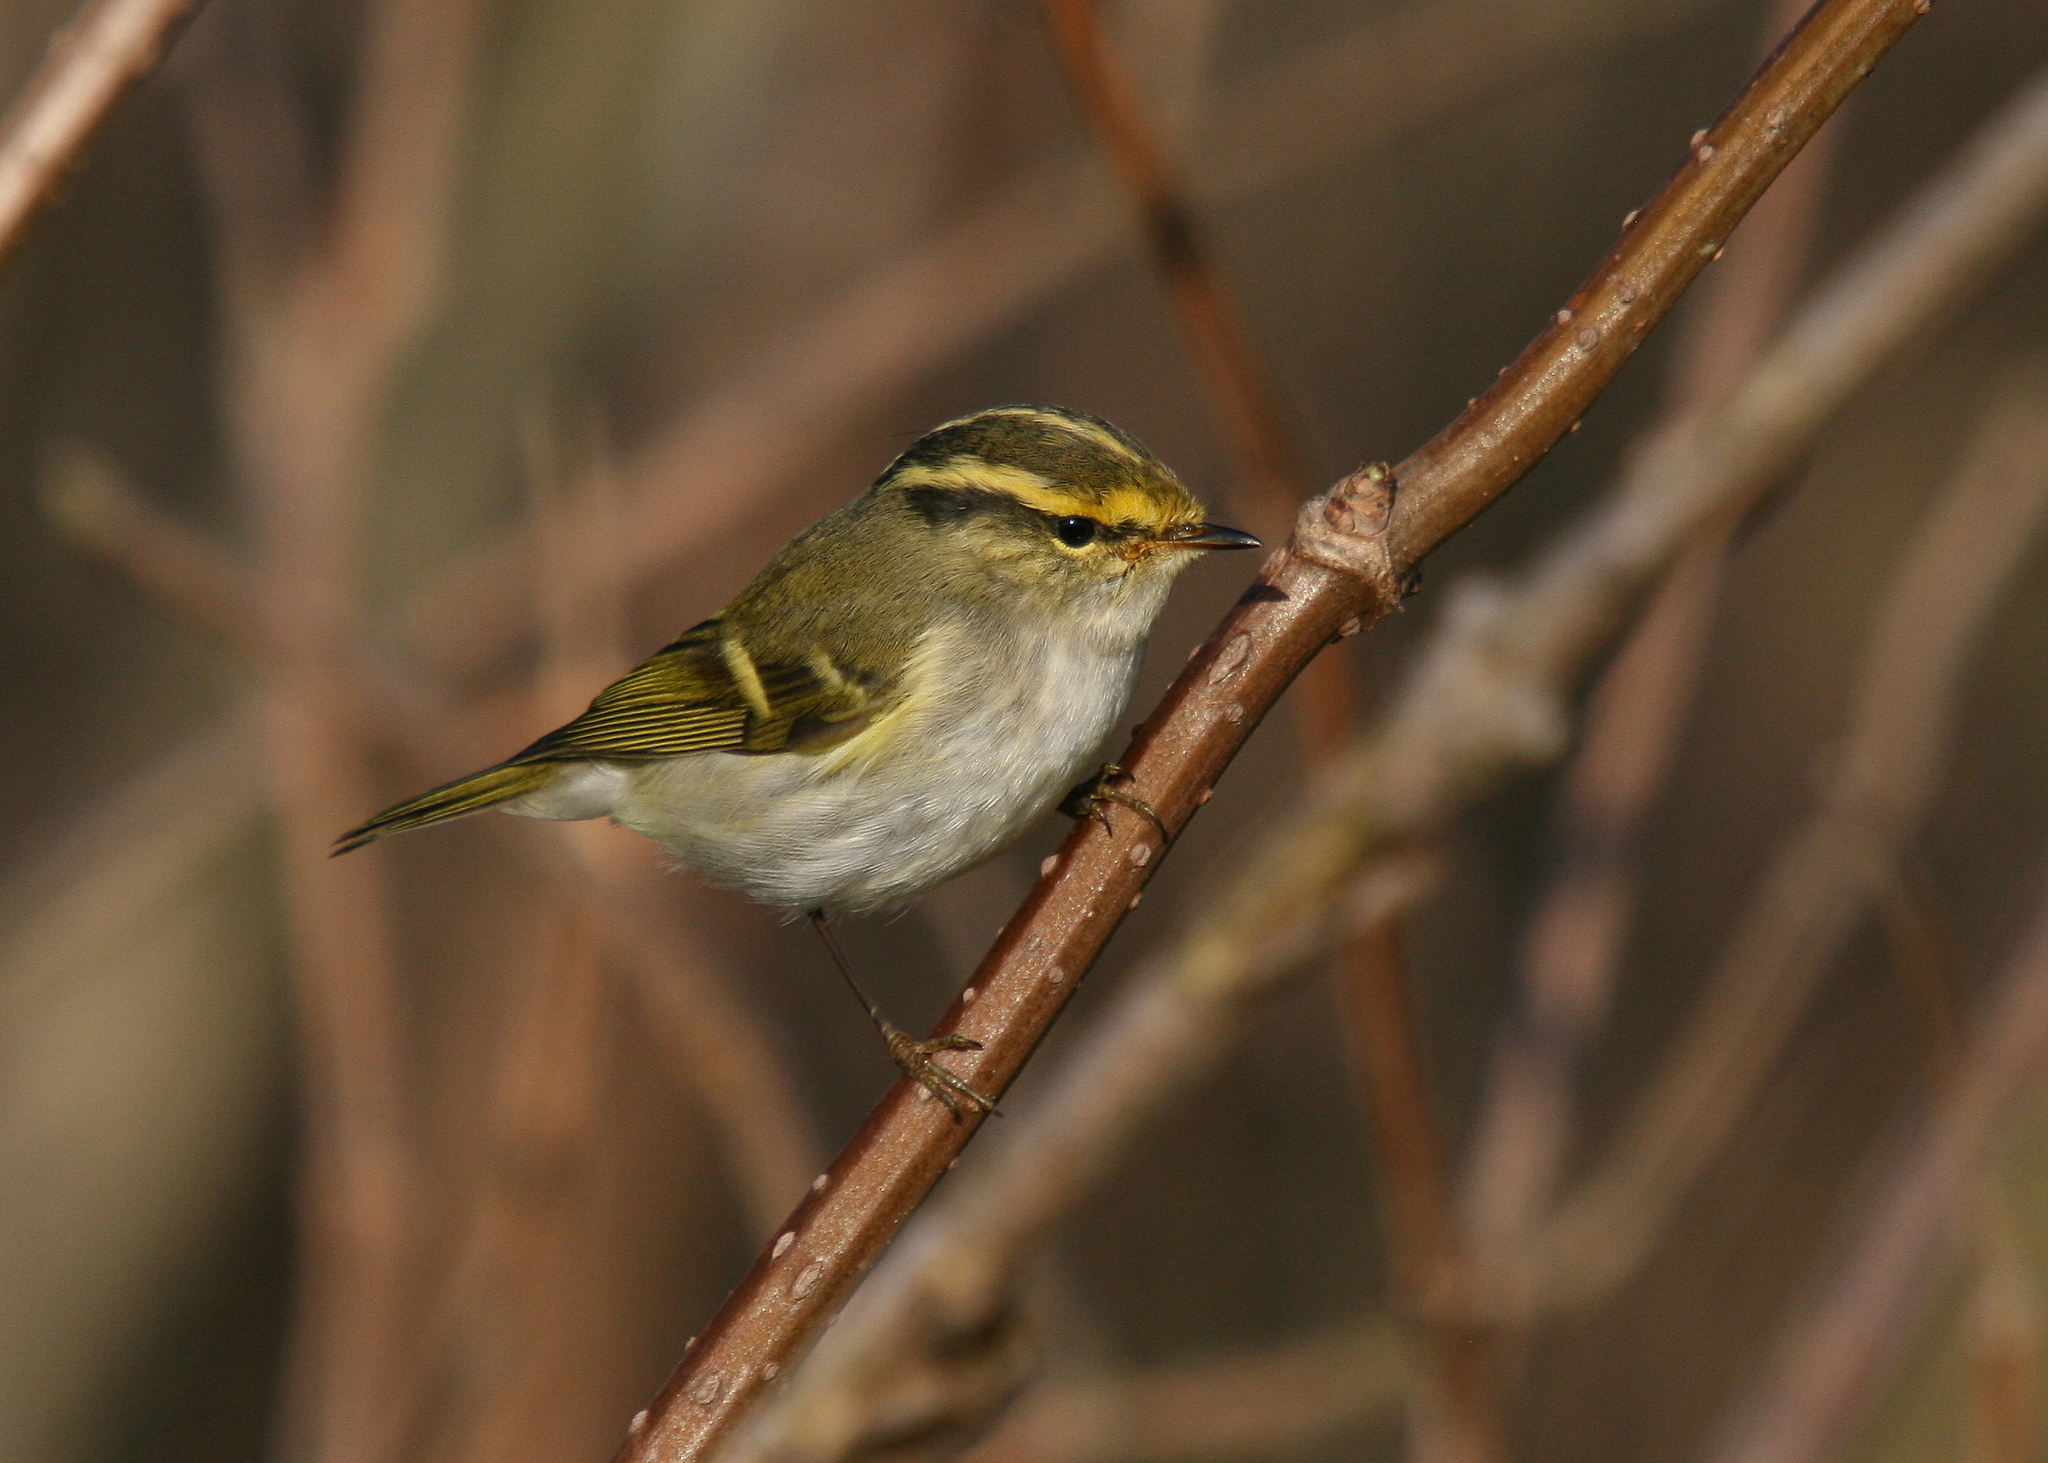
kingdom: Animalia
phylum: Chordata
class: Aves
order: Passeriformes
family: Phylloscopidae
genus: Phylloscopus
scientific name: Phylloscopus proregulus
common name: Pallas's leaf warbler
